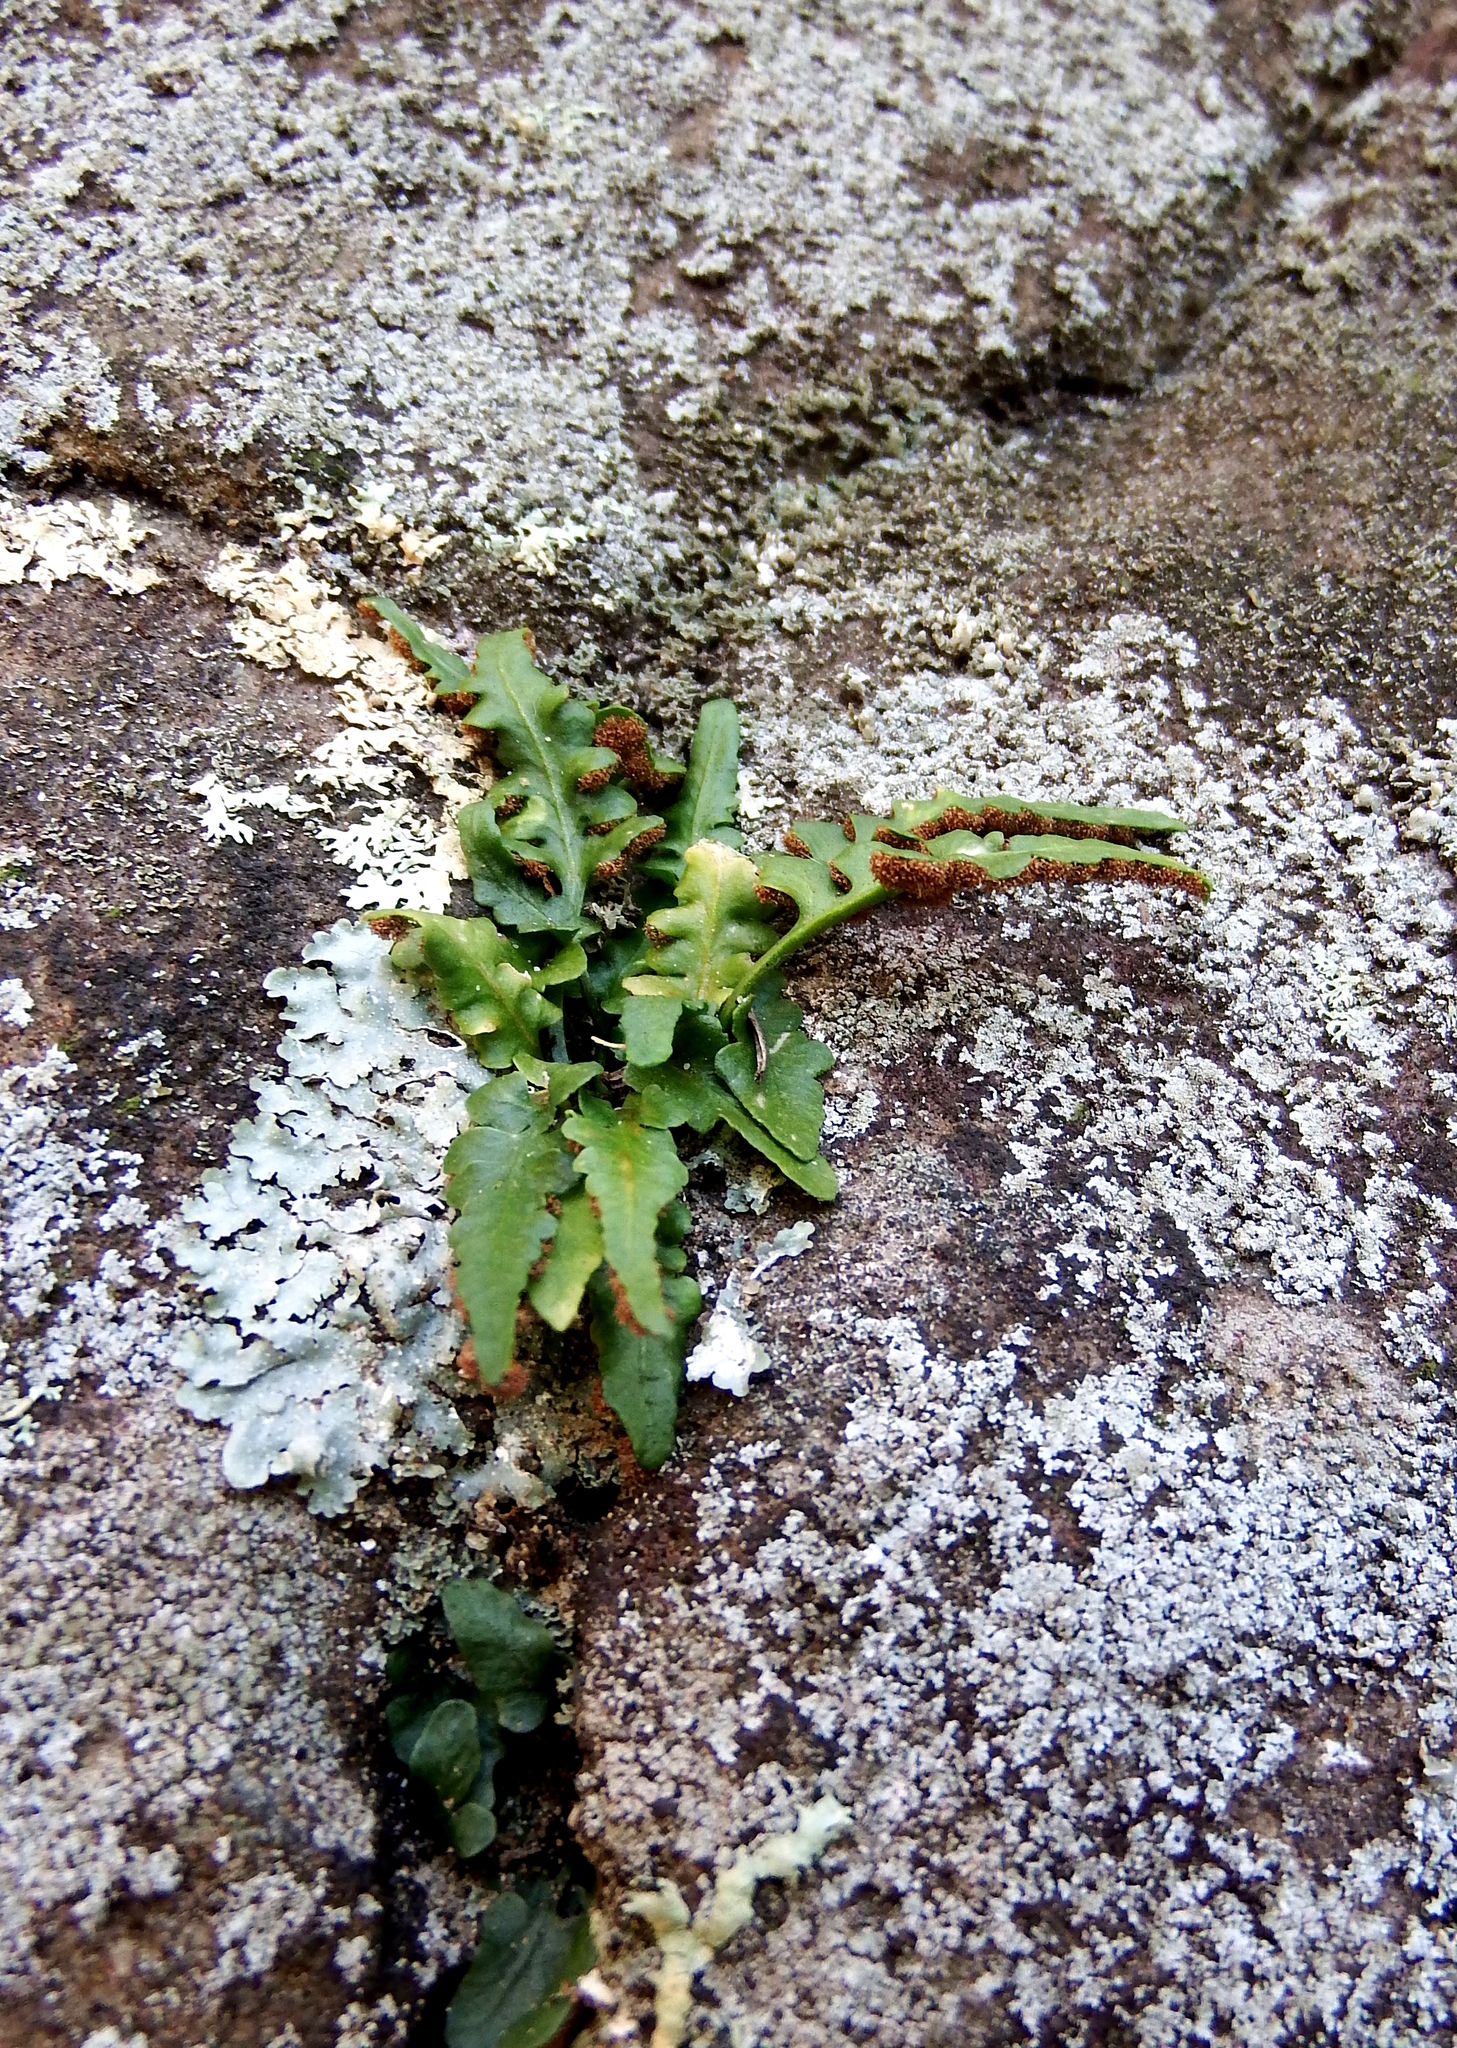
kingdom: Plantae
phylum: Tracheophyta
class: Polypodiopsida
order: Polypodiales
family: Aspleniaceae
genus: Asplenium
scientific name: Asplenium pinnatifidum
